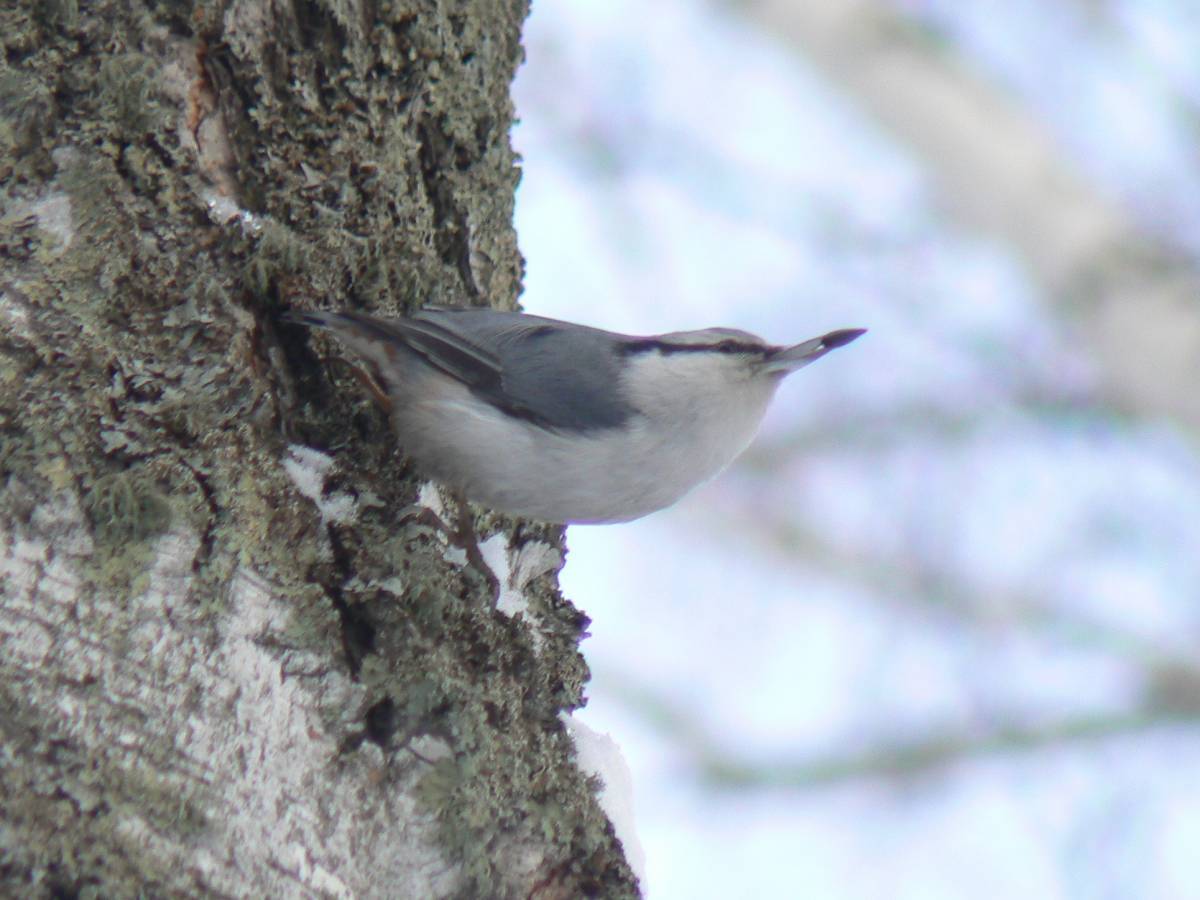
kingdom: Animalia
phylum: Chordata
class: Aves
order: Passeriformes
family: Sittidae
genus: Sitta
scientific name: Sitta europaea
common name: Eurasian nuthatch
